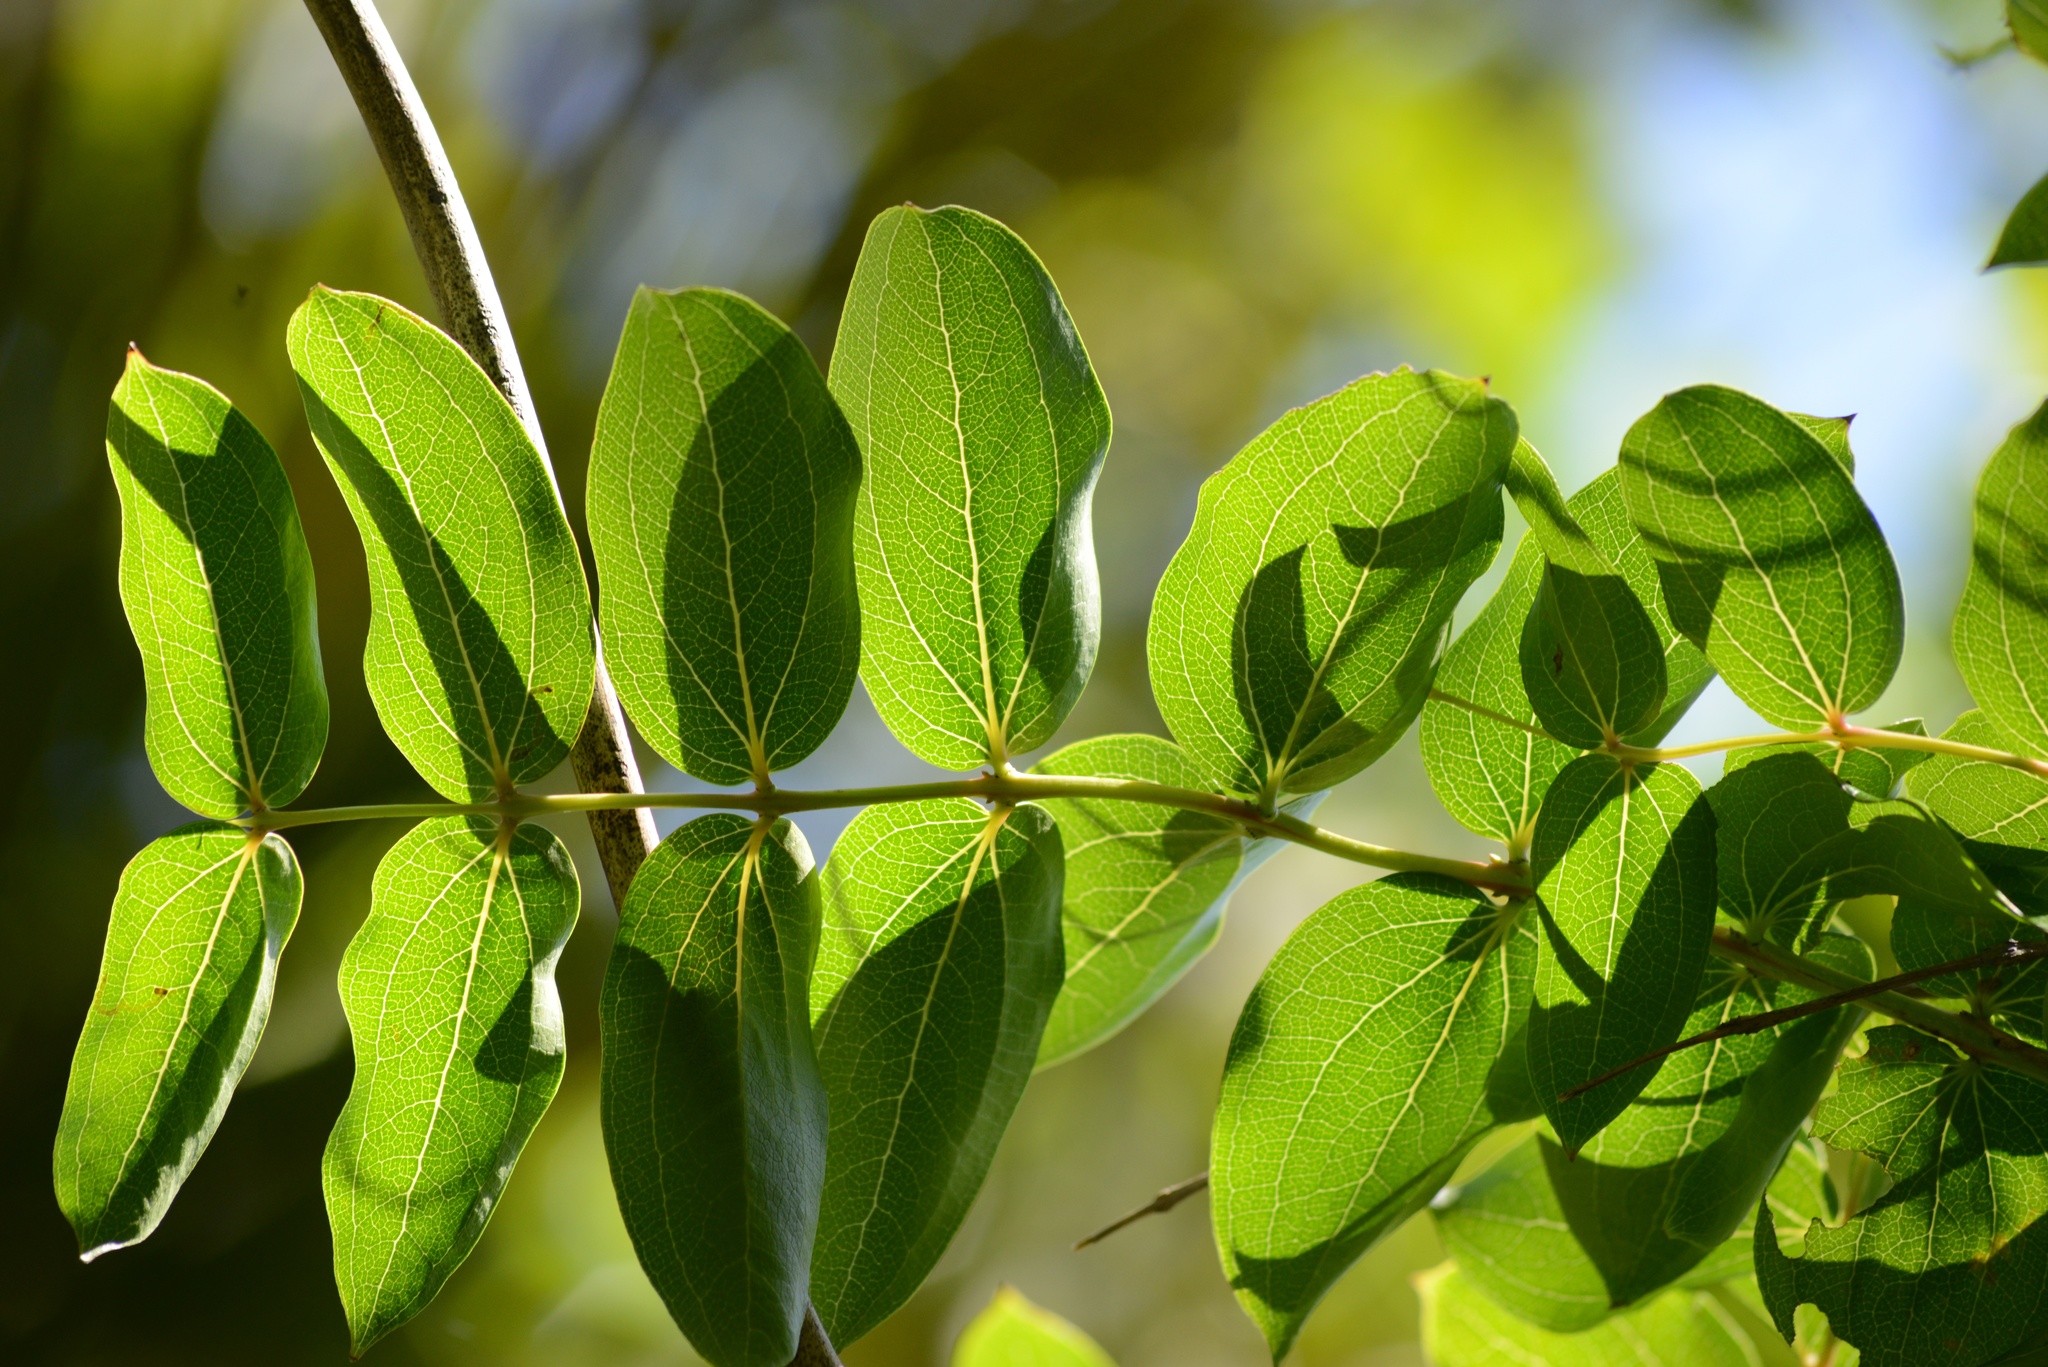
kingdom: Plantae
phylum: Tracheophyta
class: Magnoliopsida
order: Cucurbitales
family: Coriariaceae
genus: Coriaria
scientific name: Coriaria arborea
